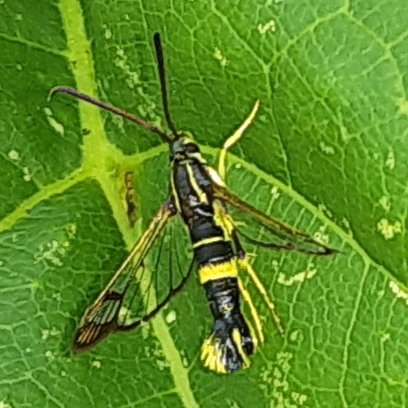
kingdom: Animalia
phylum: Arthropoda
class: Insecta
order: Lepidoptera
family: Sesiidae
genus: Synanthedon
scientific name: Synanthedon scitula
